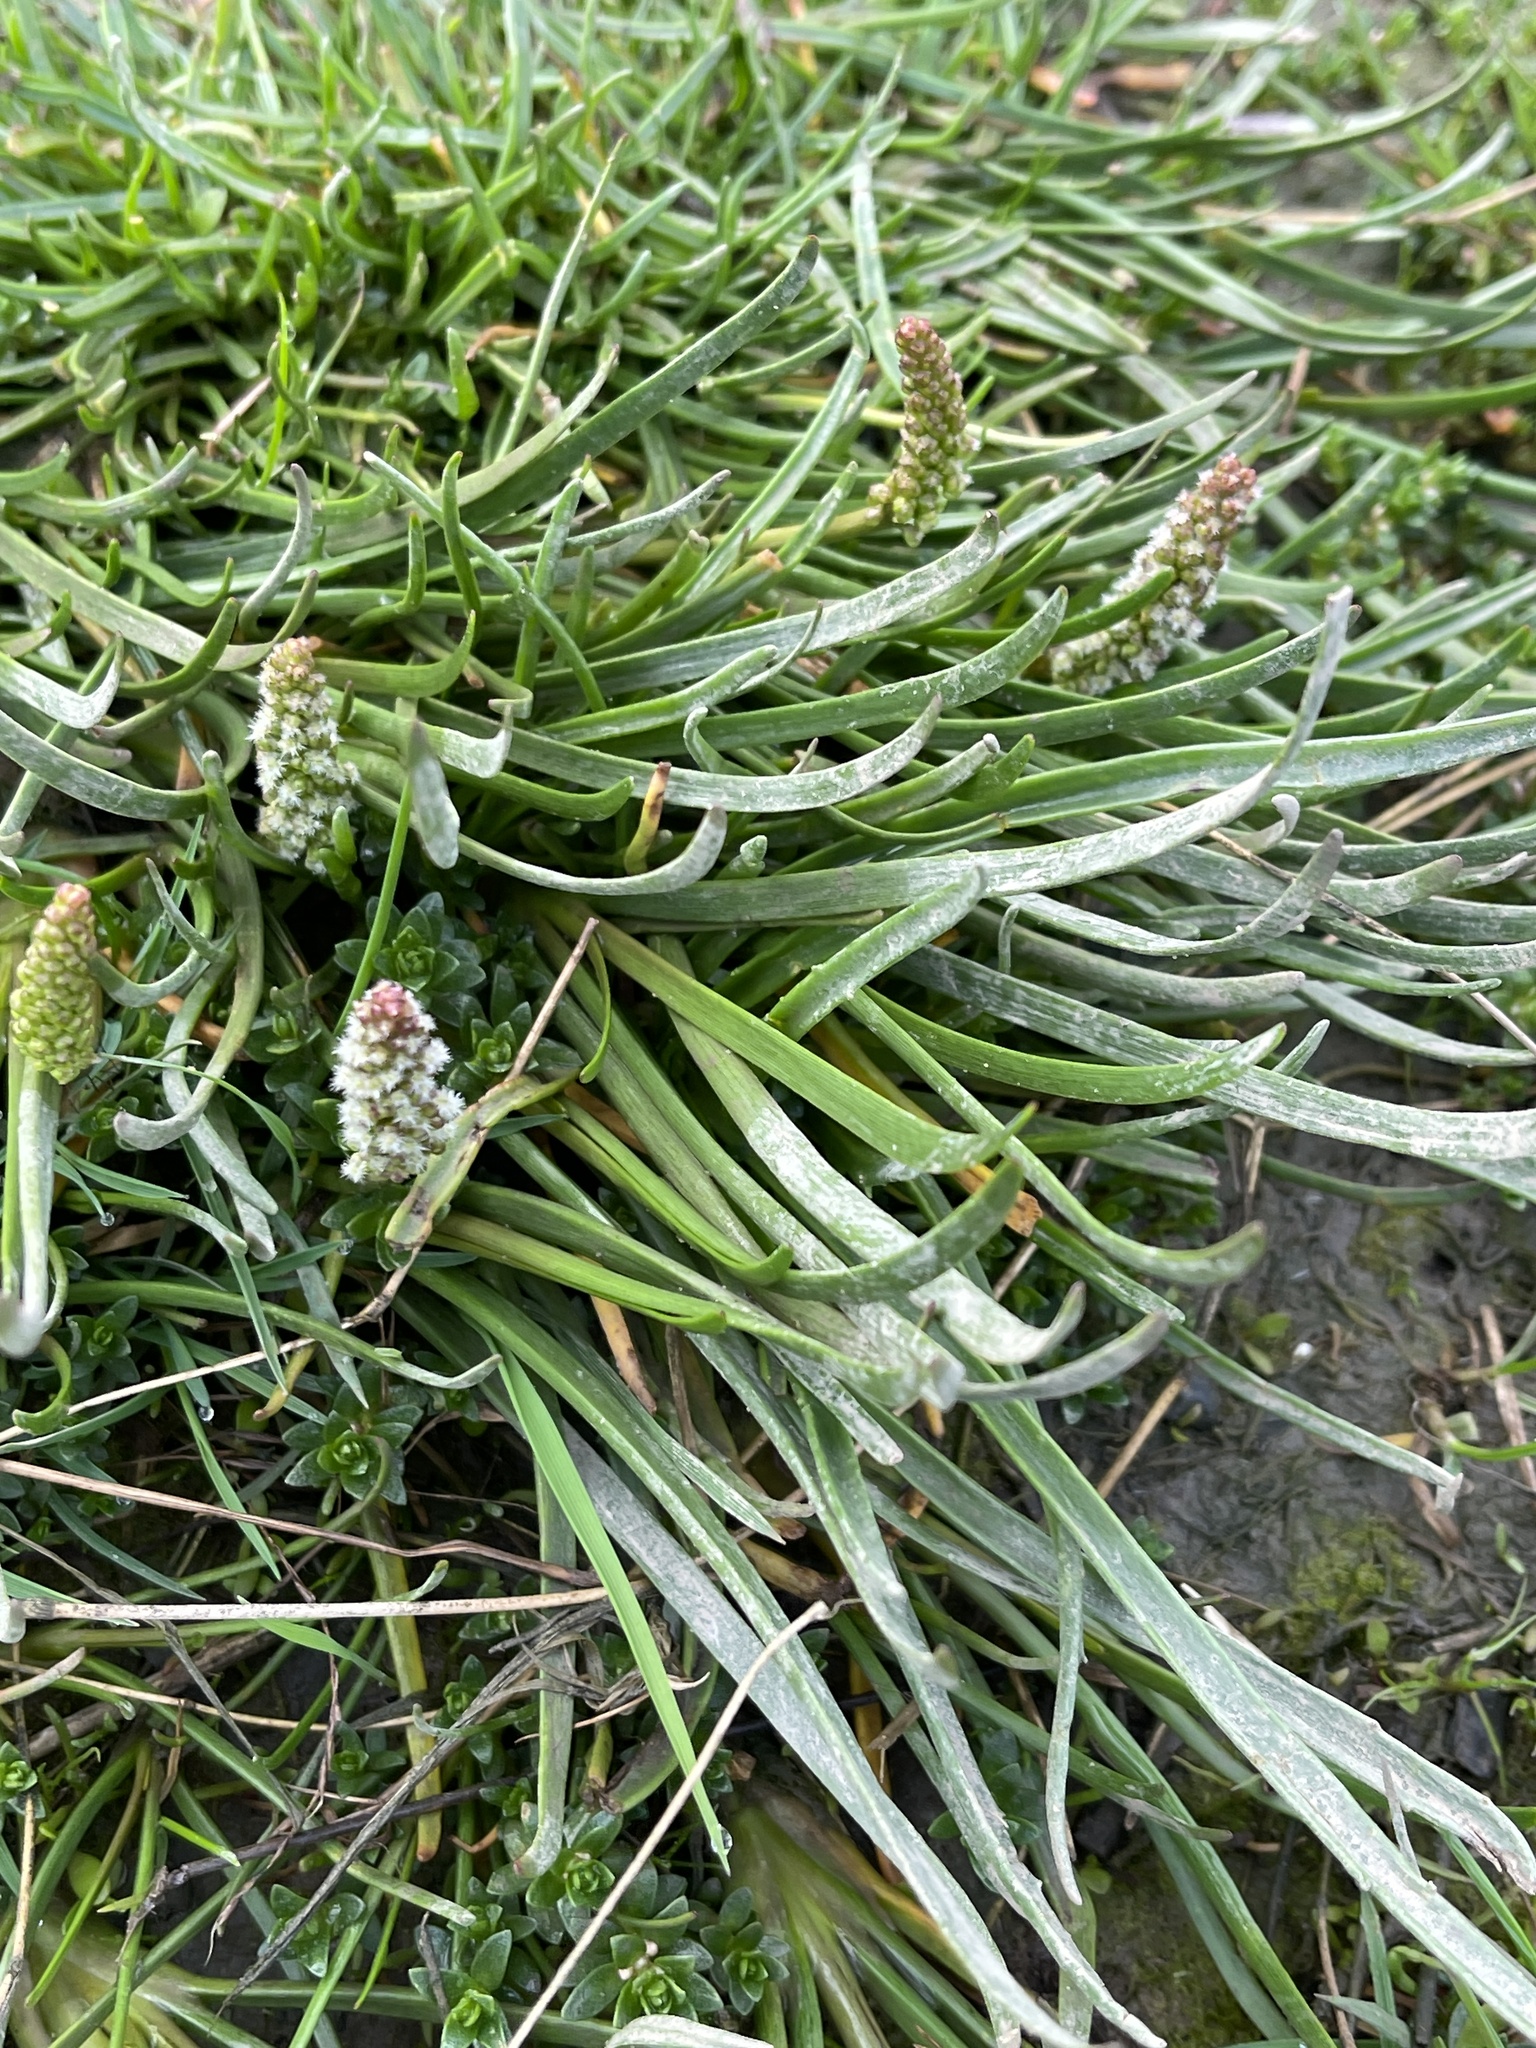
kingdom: Plantae
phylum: Tracheophyta
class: Magnoliopsida
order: Lamiales
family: Plantaginaceae
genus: Plantago
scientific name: Plantago maritima
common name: Sea plantain
